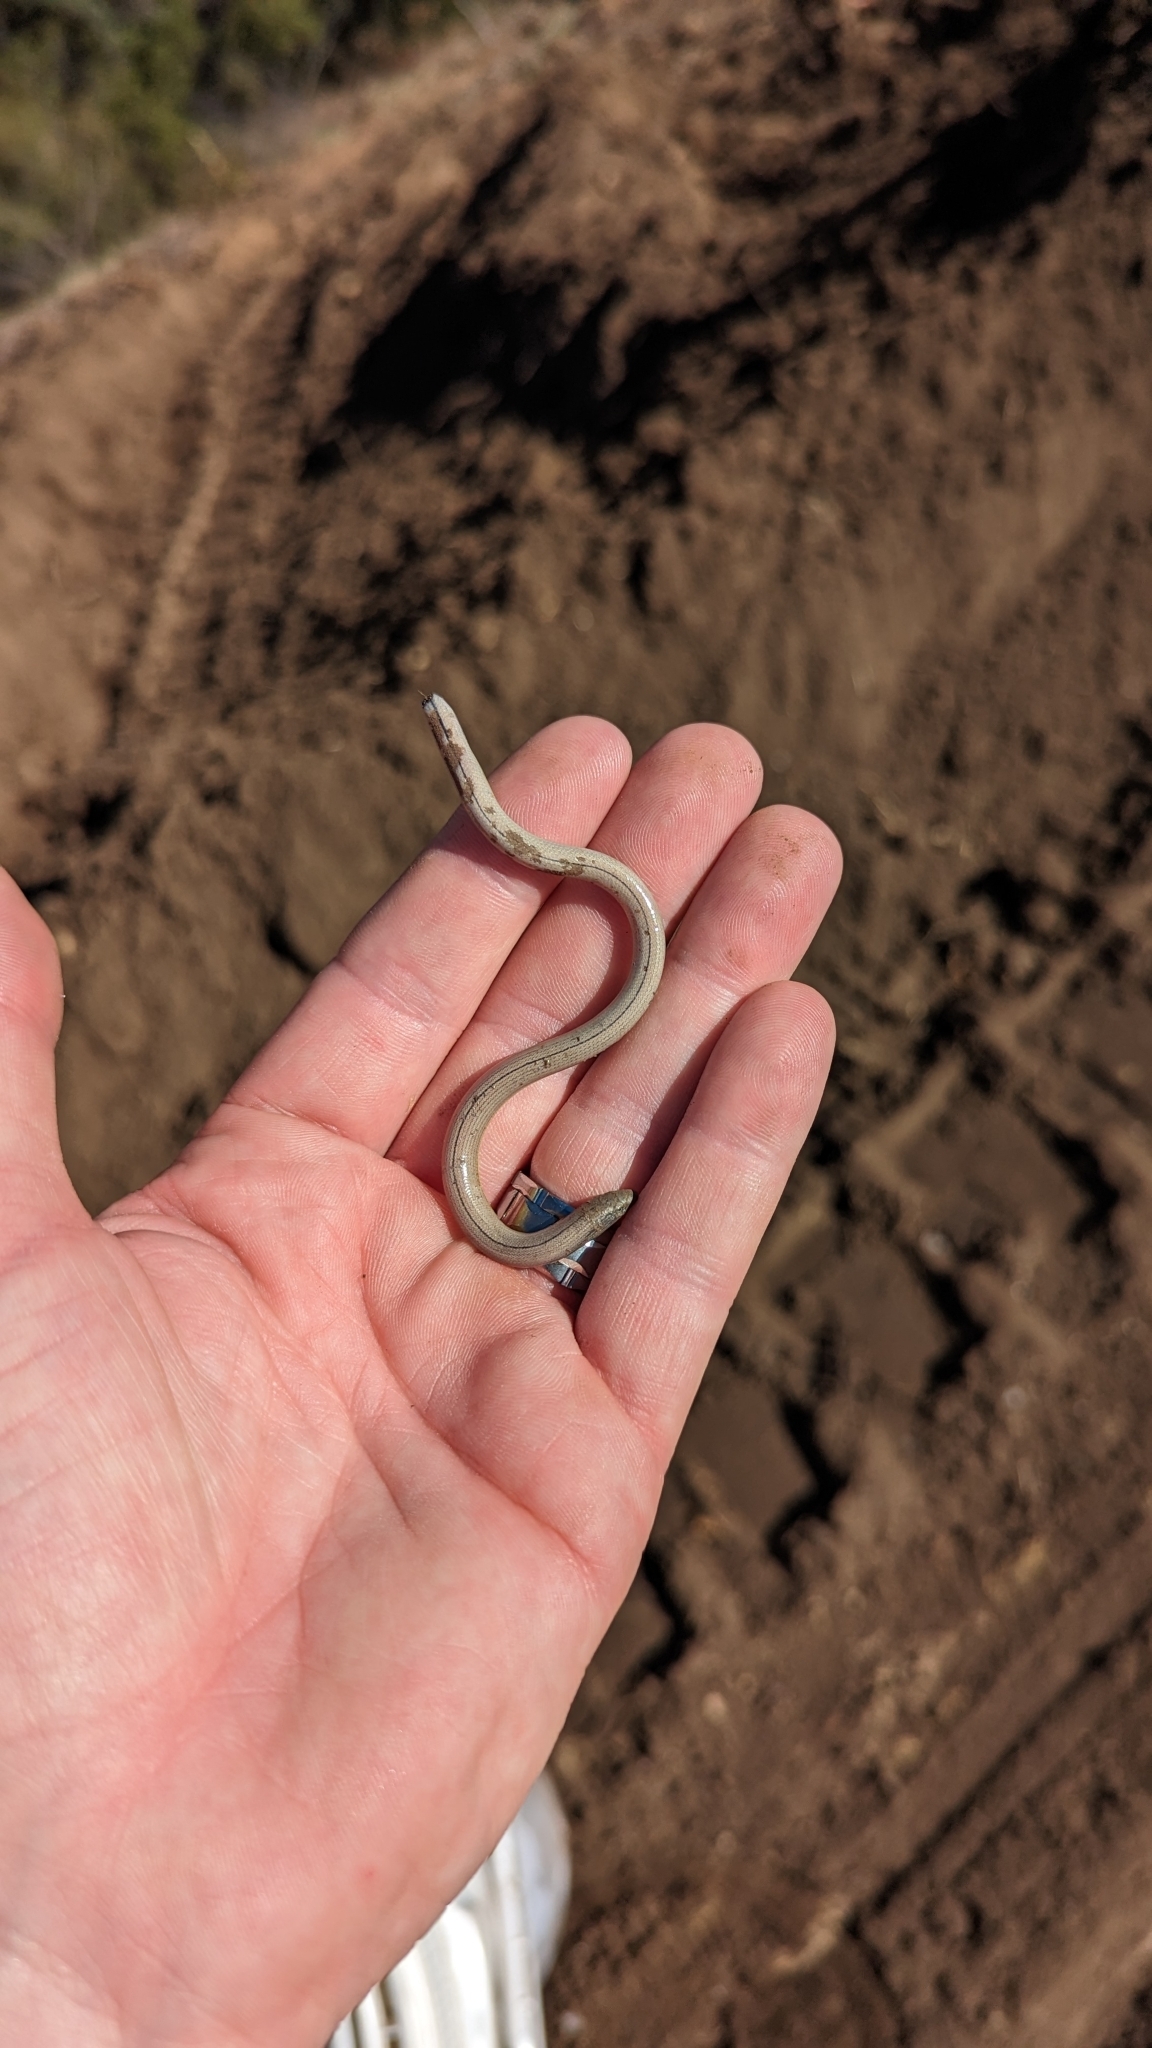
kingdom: Animalia
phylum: Chordata
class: Squamata
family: Anguidae
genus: Anniella
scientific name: Anniella stebbinsi
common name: Southern california legless lizard
